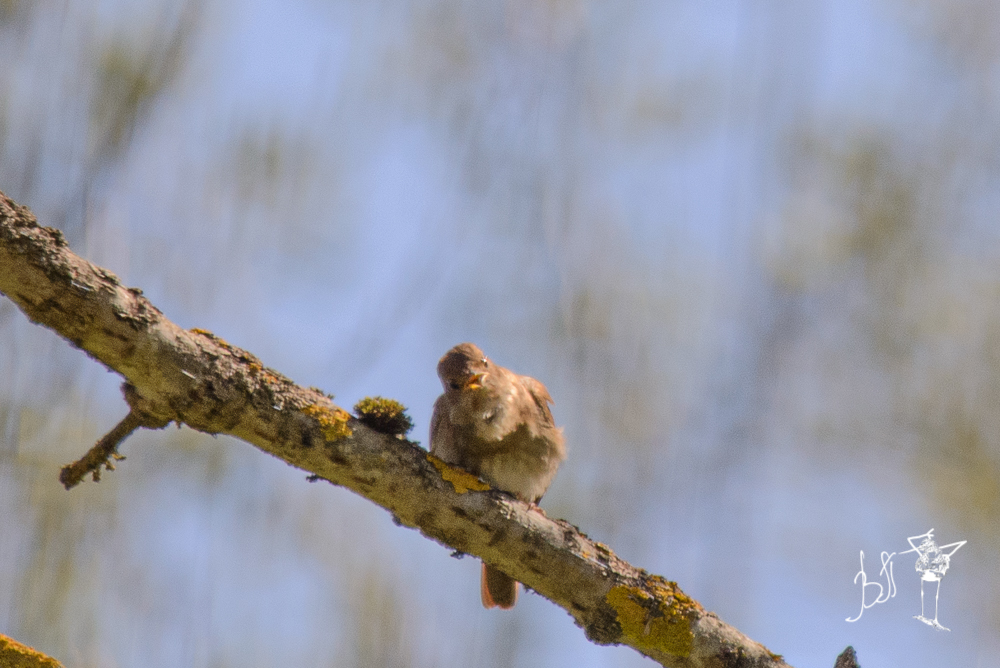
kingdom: Animalia
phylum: Chordata
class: Aves
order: Passeriformes
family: Muscicapidae
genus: Luscinia
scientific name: Luscinia luscinia
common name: Thrush nightingale
